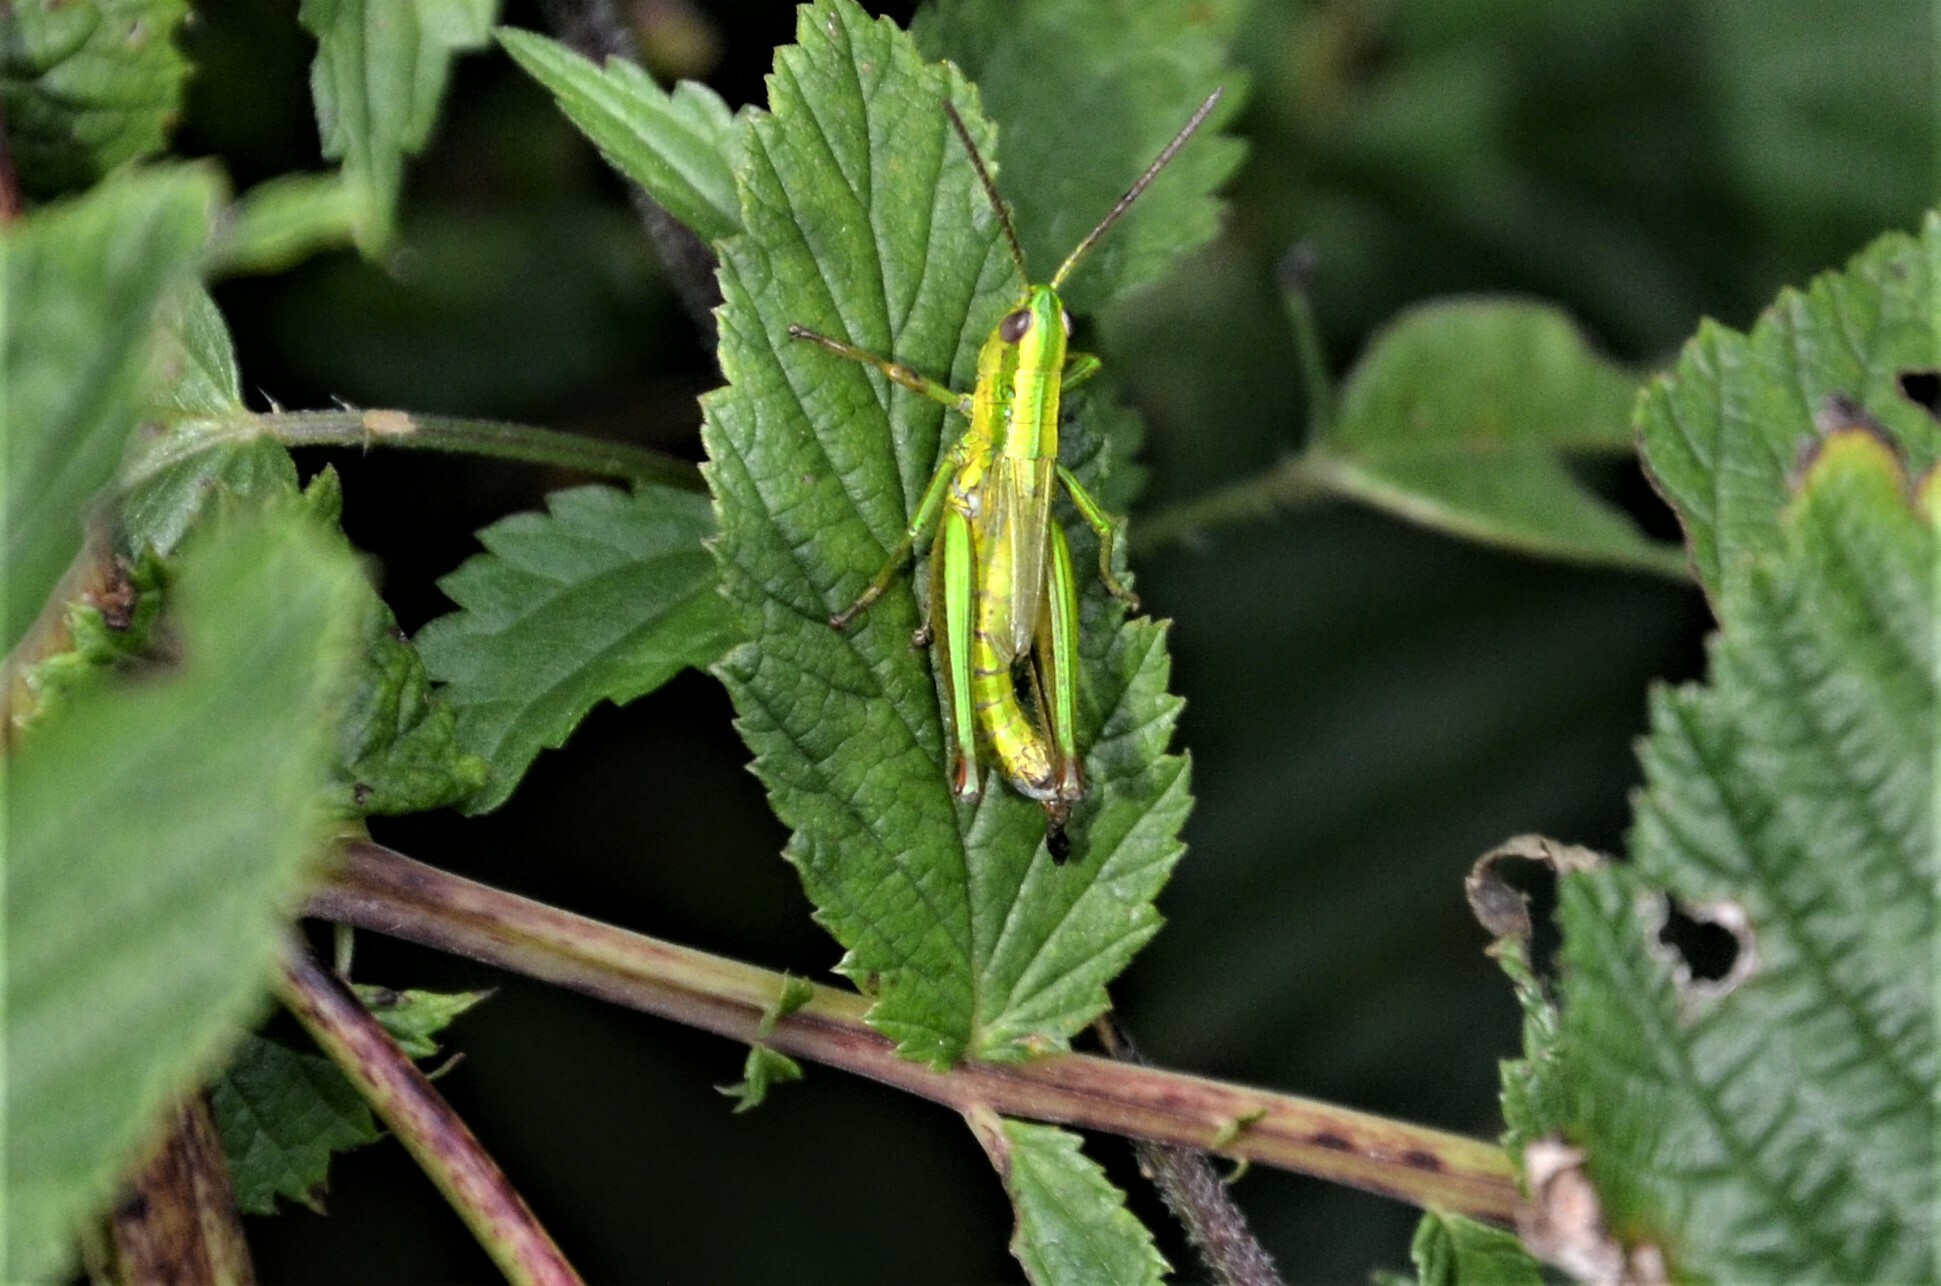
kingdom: Animalia
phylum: Arthropoda
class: Insecta
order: Orthoptera
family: Acrididae
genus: Euthystira
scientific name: Euthystira brachyptera
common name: Small gold grasshopper
